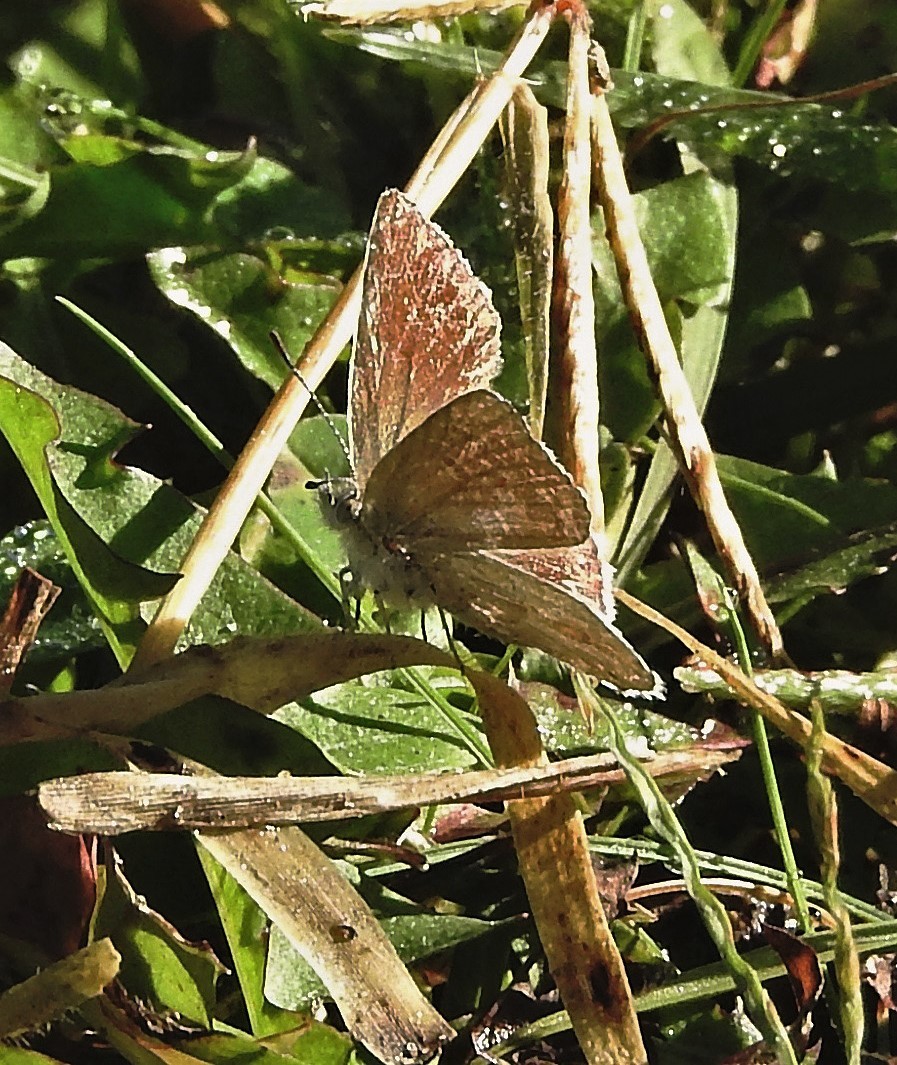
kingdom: Animalia
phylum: Arthropoda
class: Insecta
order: Lepidoptera
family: Lycaenidae
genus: Itylos
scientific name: Itylos moza
